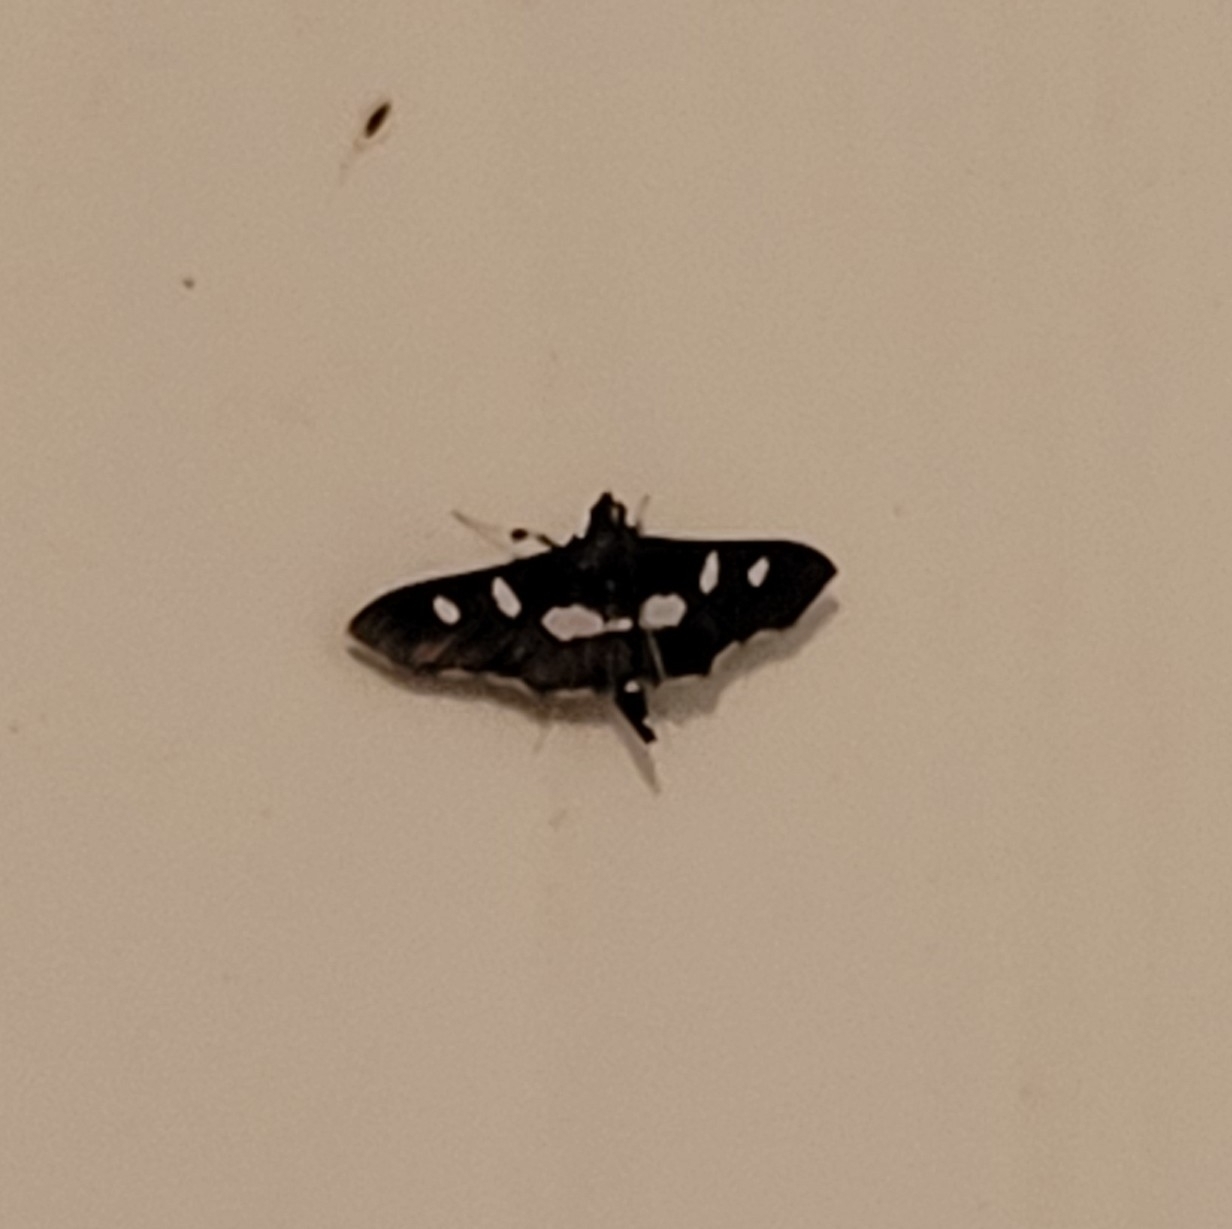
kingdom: Animalia
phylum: Arthropoda
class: Insecta
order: Lepidoptera
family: Crambidae
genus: Desmia
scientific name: Desmia
